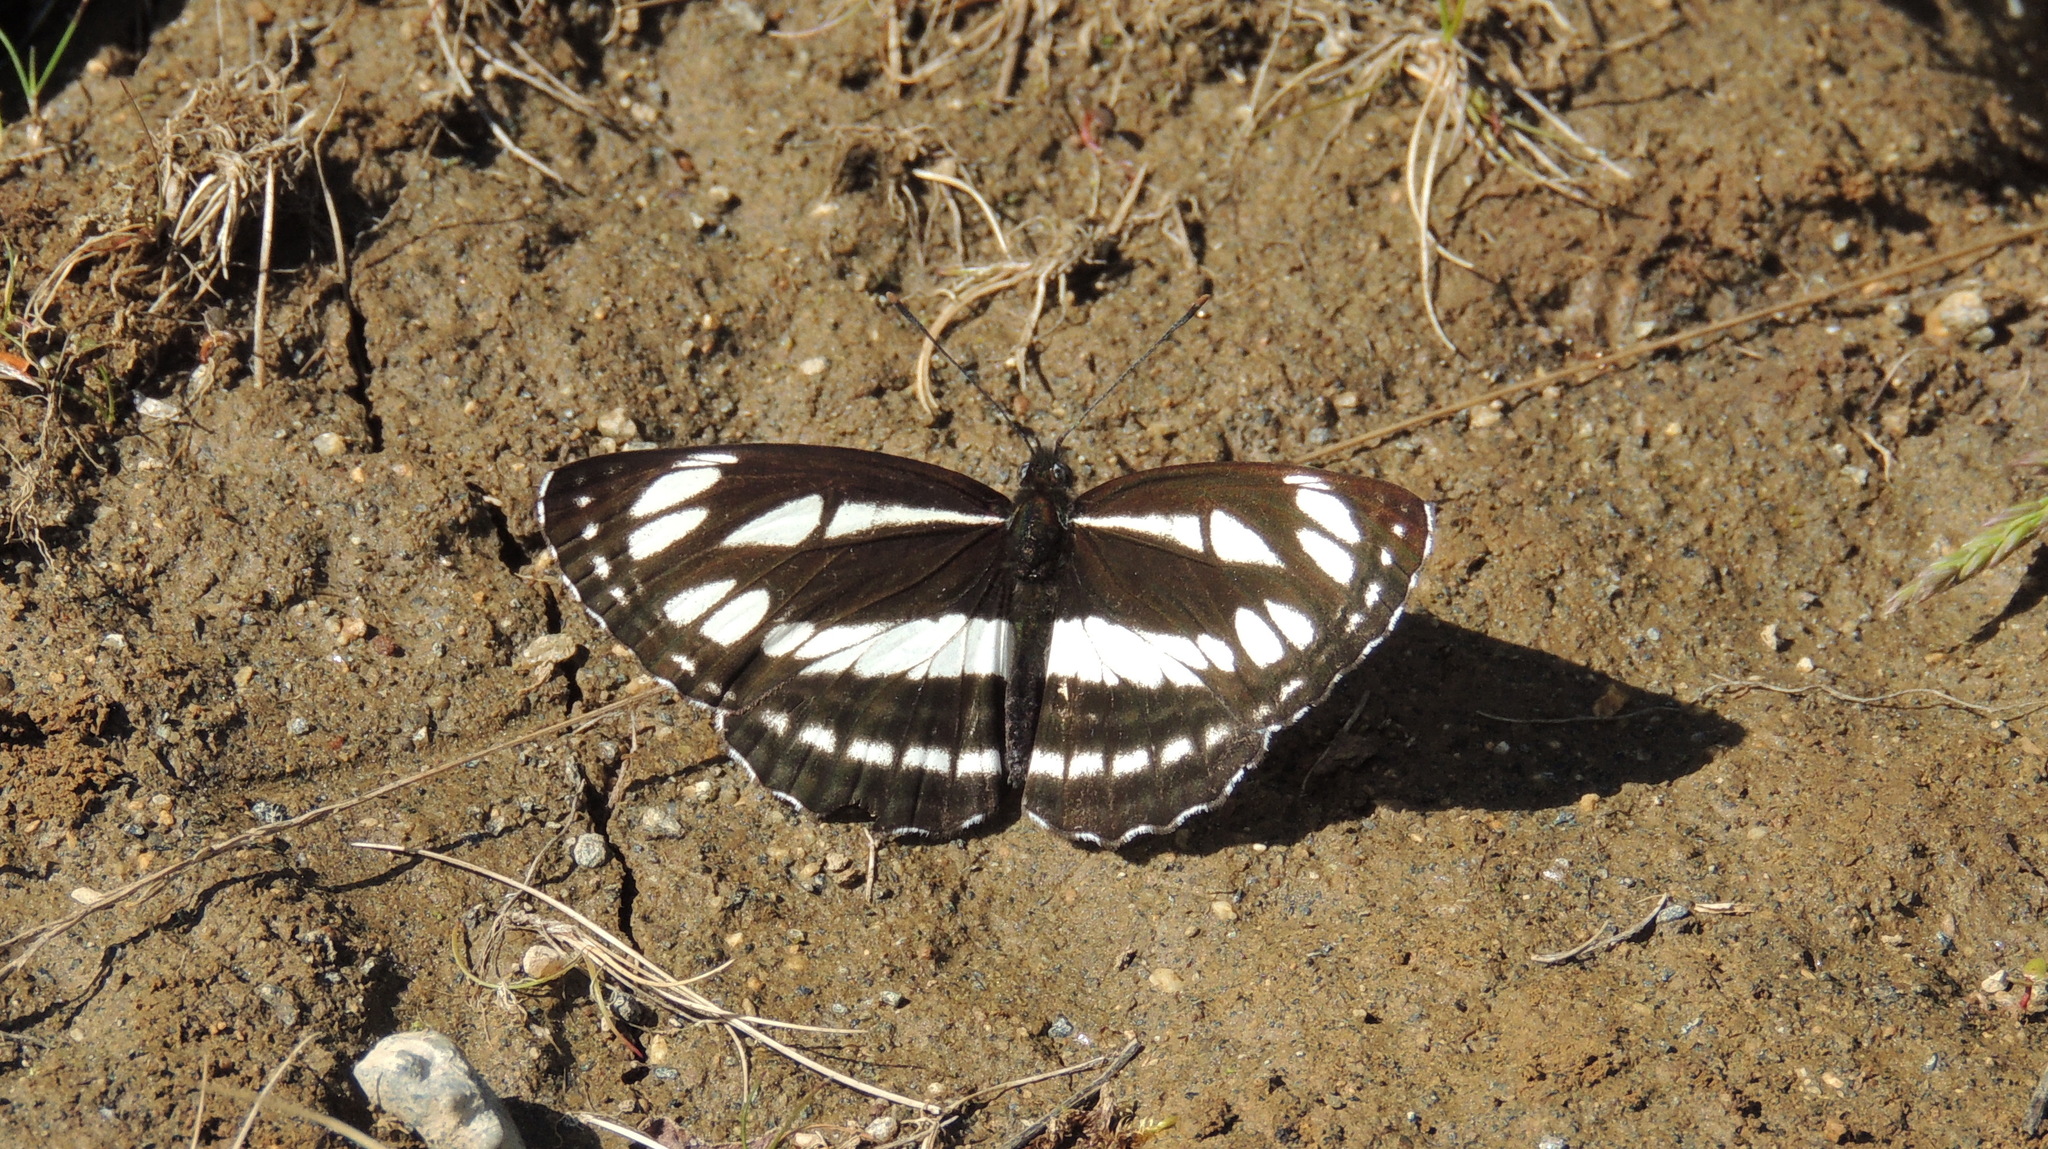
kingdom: Animalia
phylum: Arthropoda
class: Insecta
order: Lepidoptera
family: Nymphalidae
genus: Neptis
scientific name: Neptis sappho
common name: Common glider
